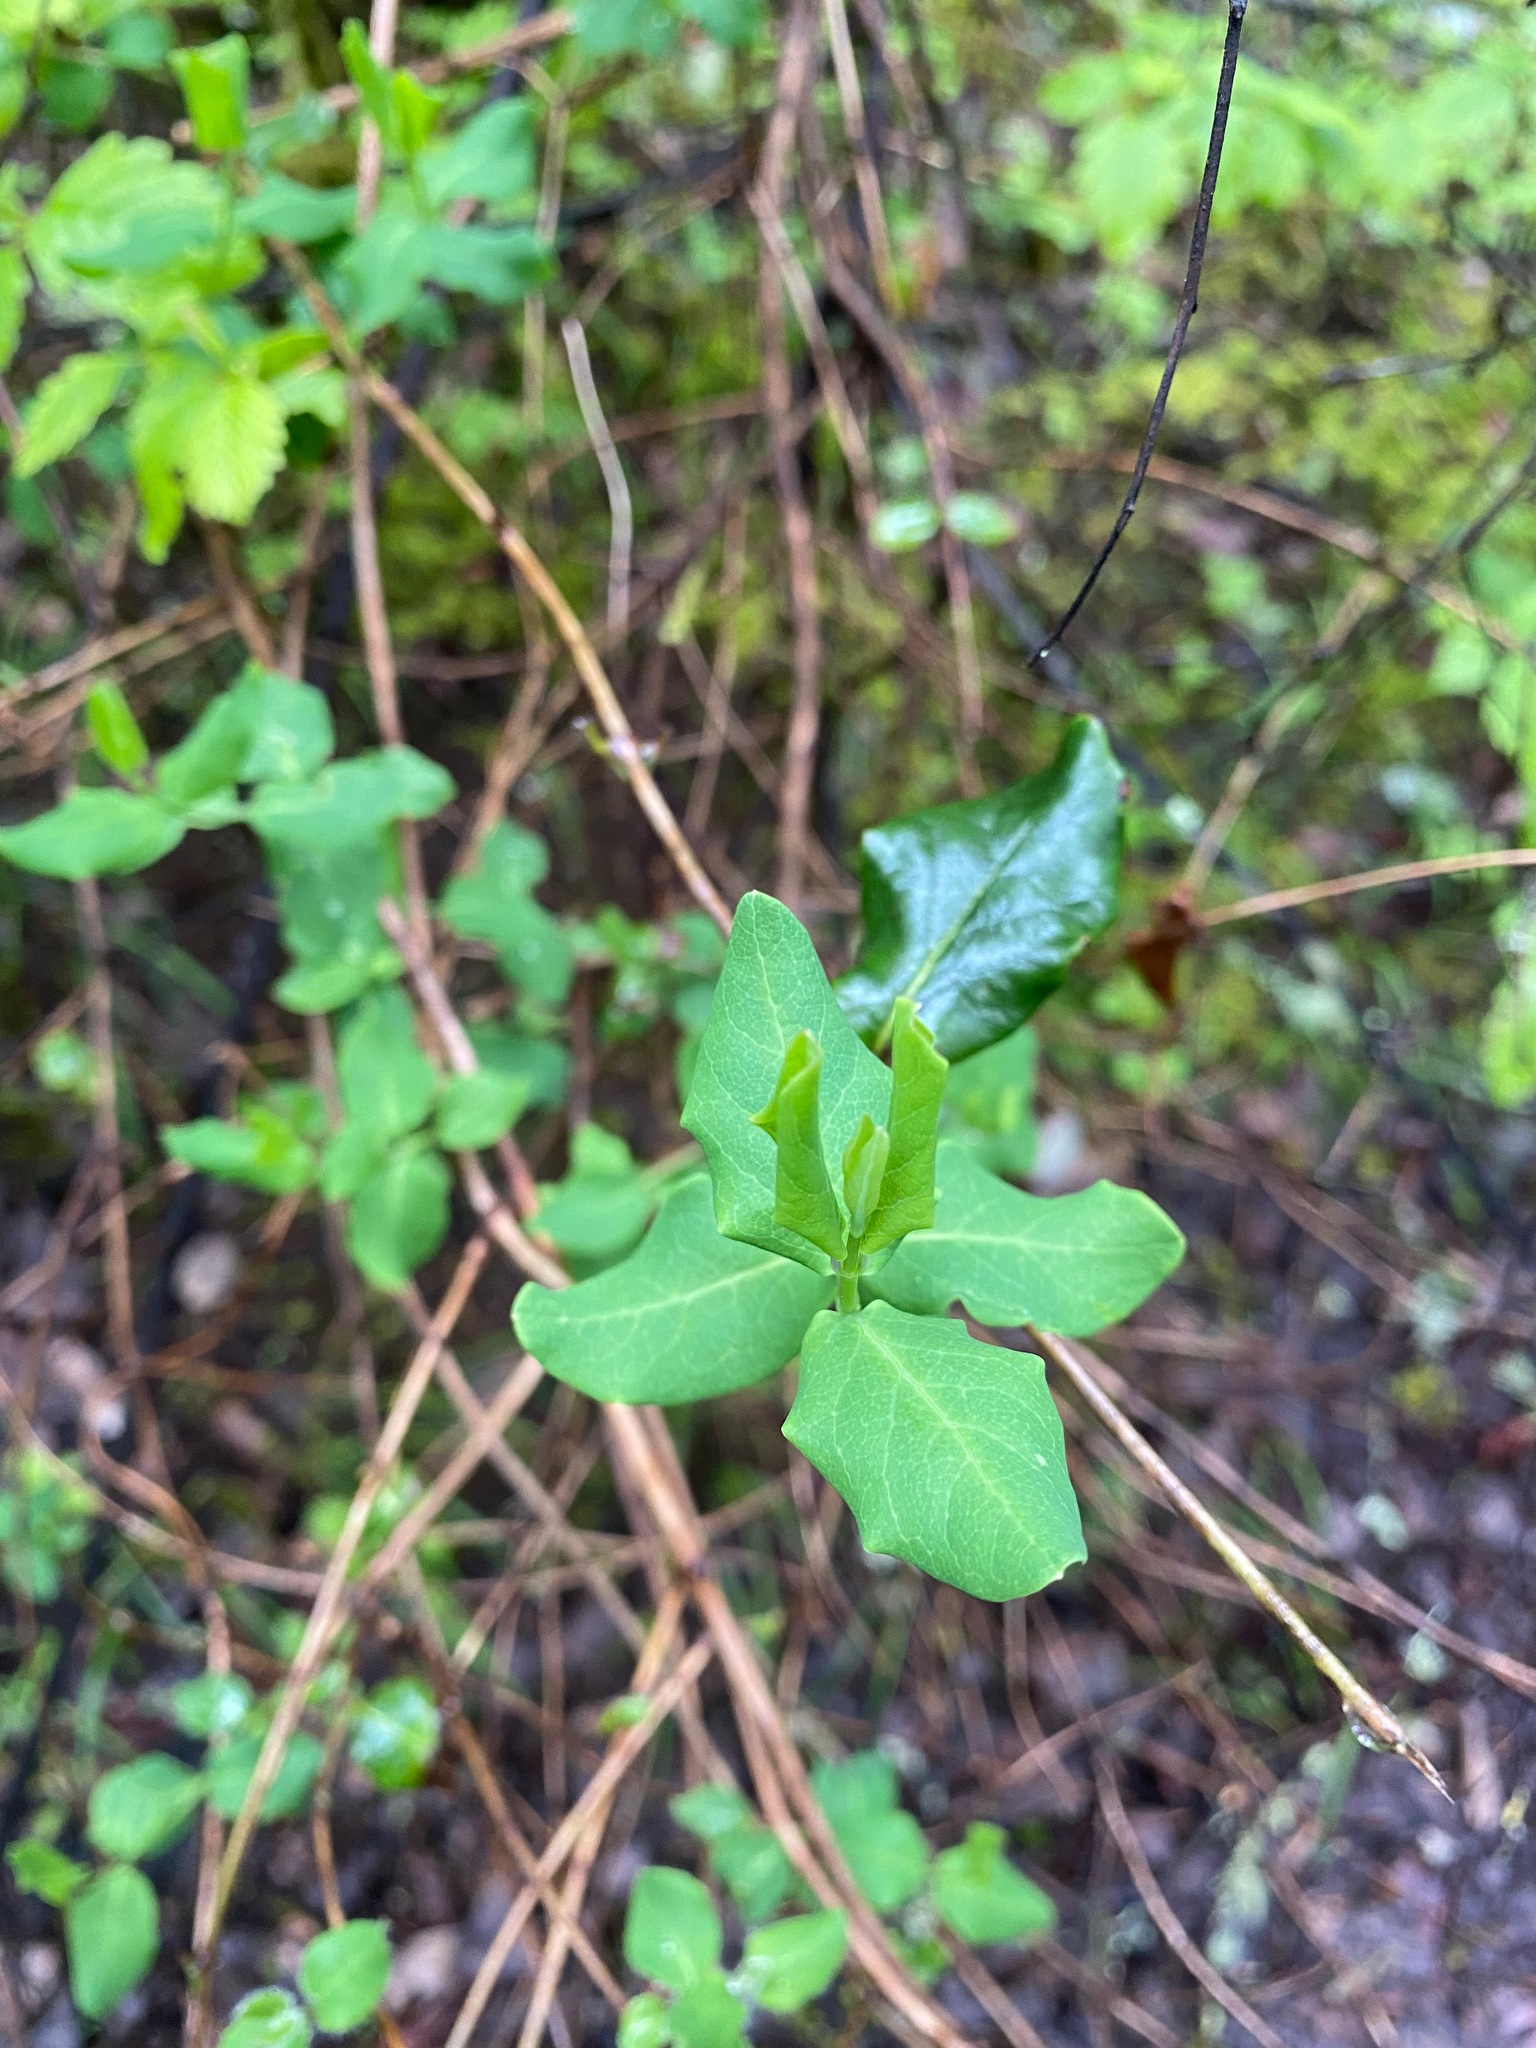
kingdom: Plantae
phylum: Tracheophyta
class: Magnoliopsida
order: Dipsacales
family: Caprifoliaceae
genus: Lonicera
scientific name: Lonicera hispidula
